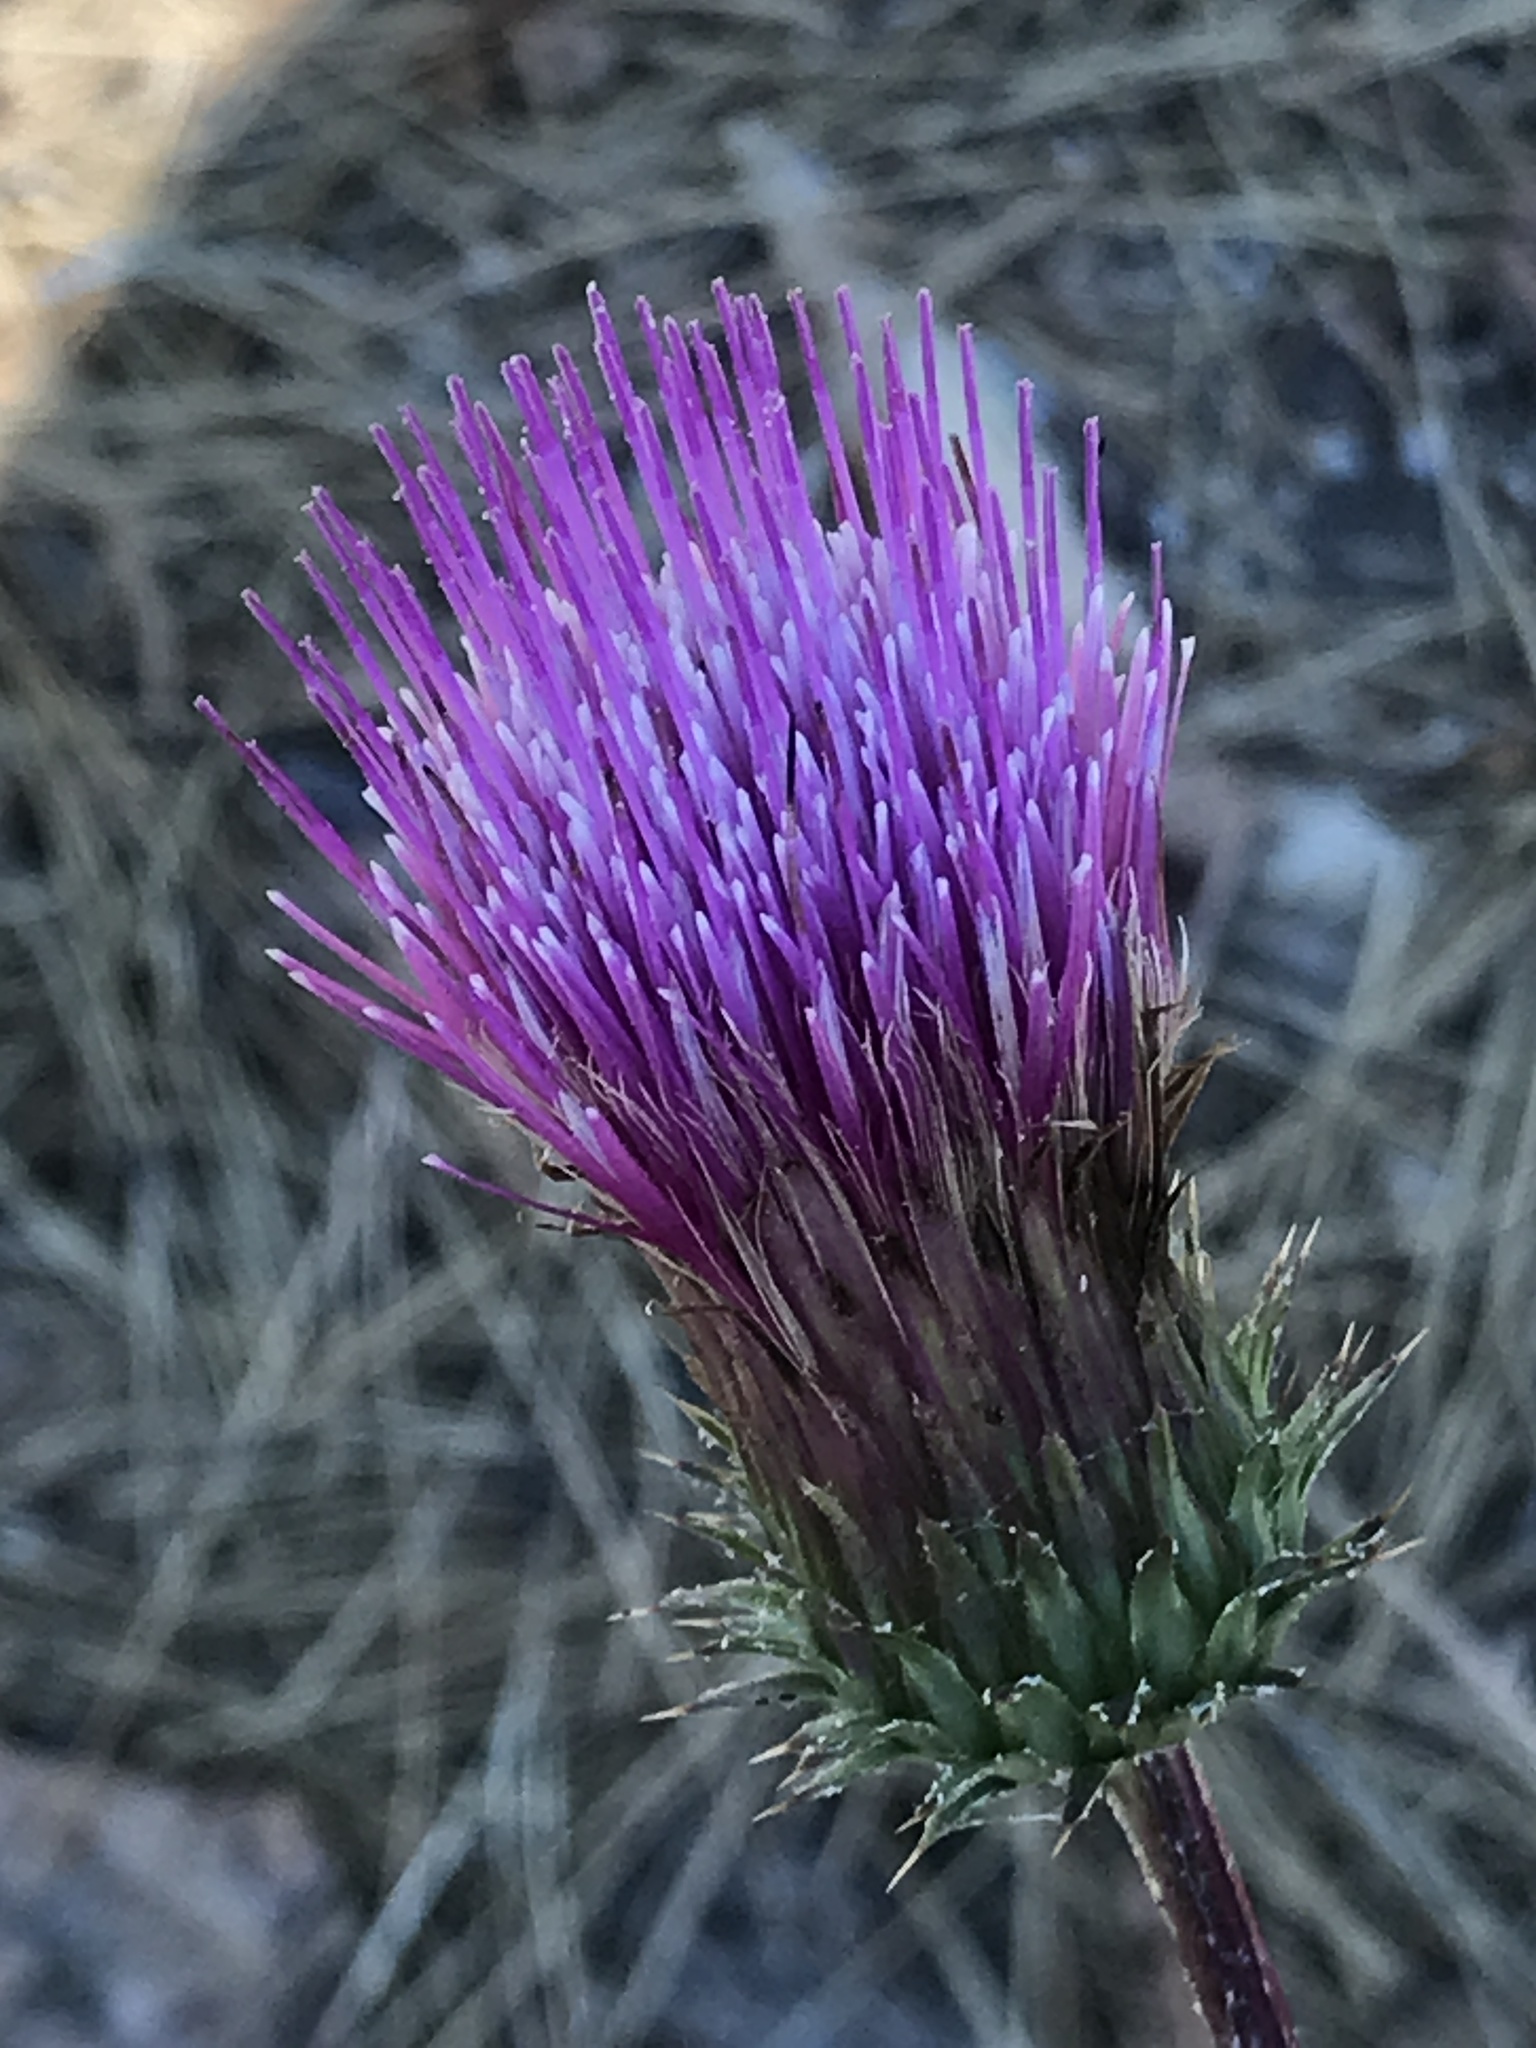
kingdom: Plantae
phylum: Tracheophyta
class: Magnoliopsida
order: Asterales
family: Asteraceae
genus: Cirsium
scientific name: Cirsium andersonii
